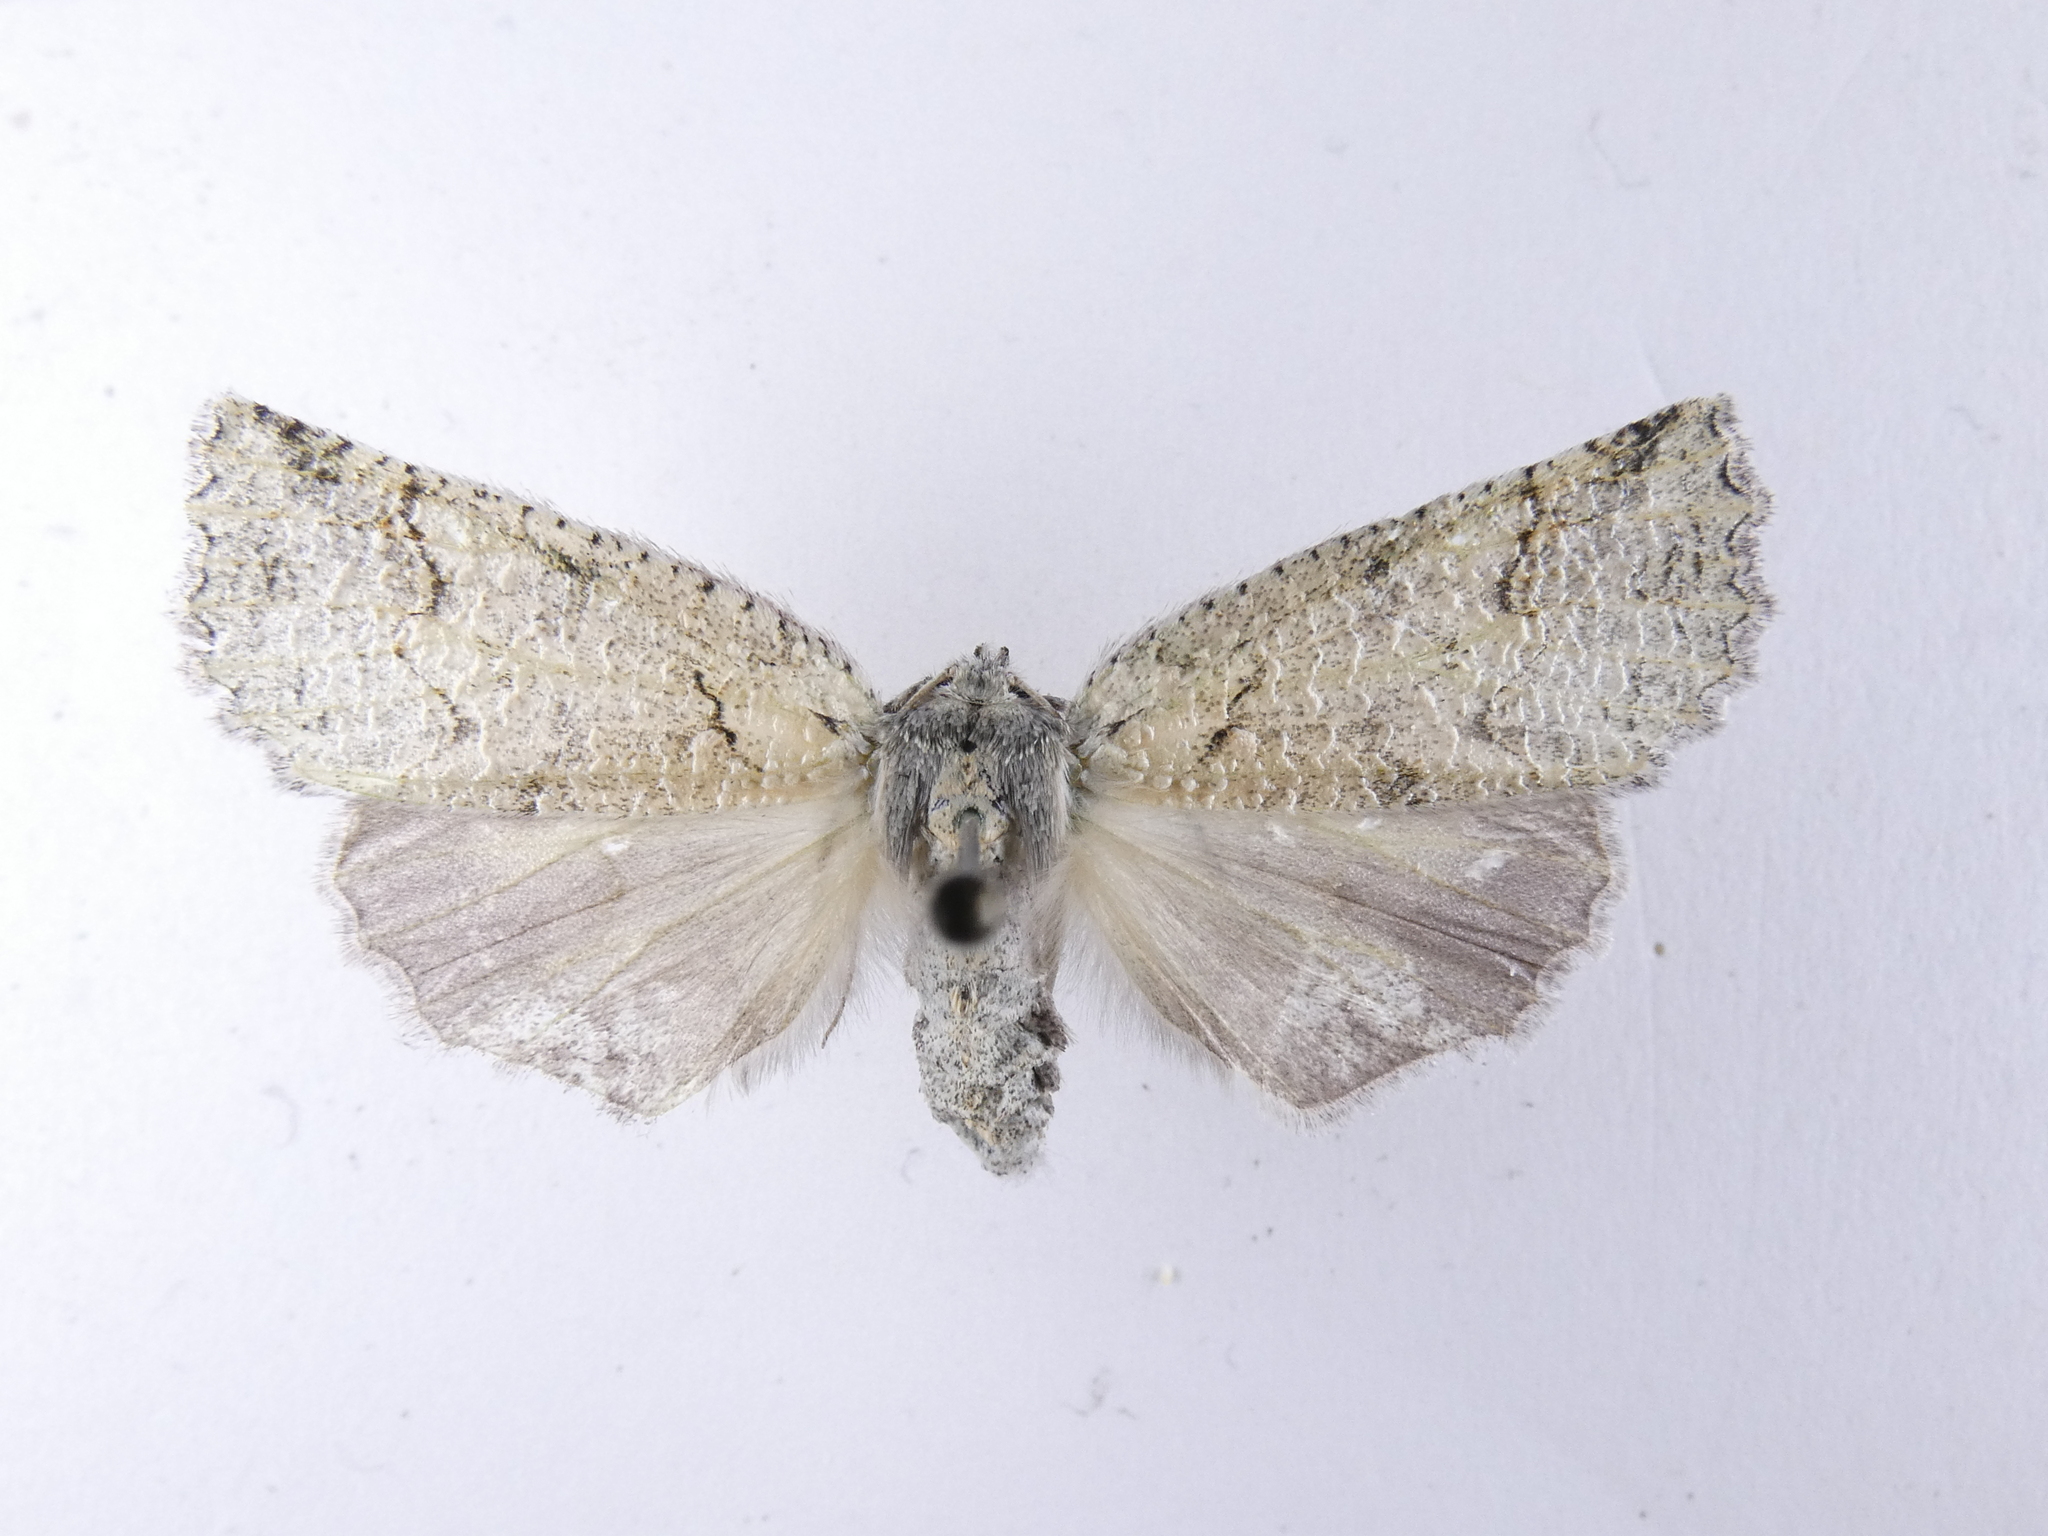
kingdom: Animalia
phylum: Arthropoda
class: Insecta
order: Lepidoptera
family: Geometridae
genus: Declana
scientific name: Declana floccosa
